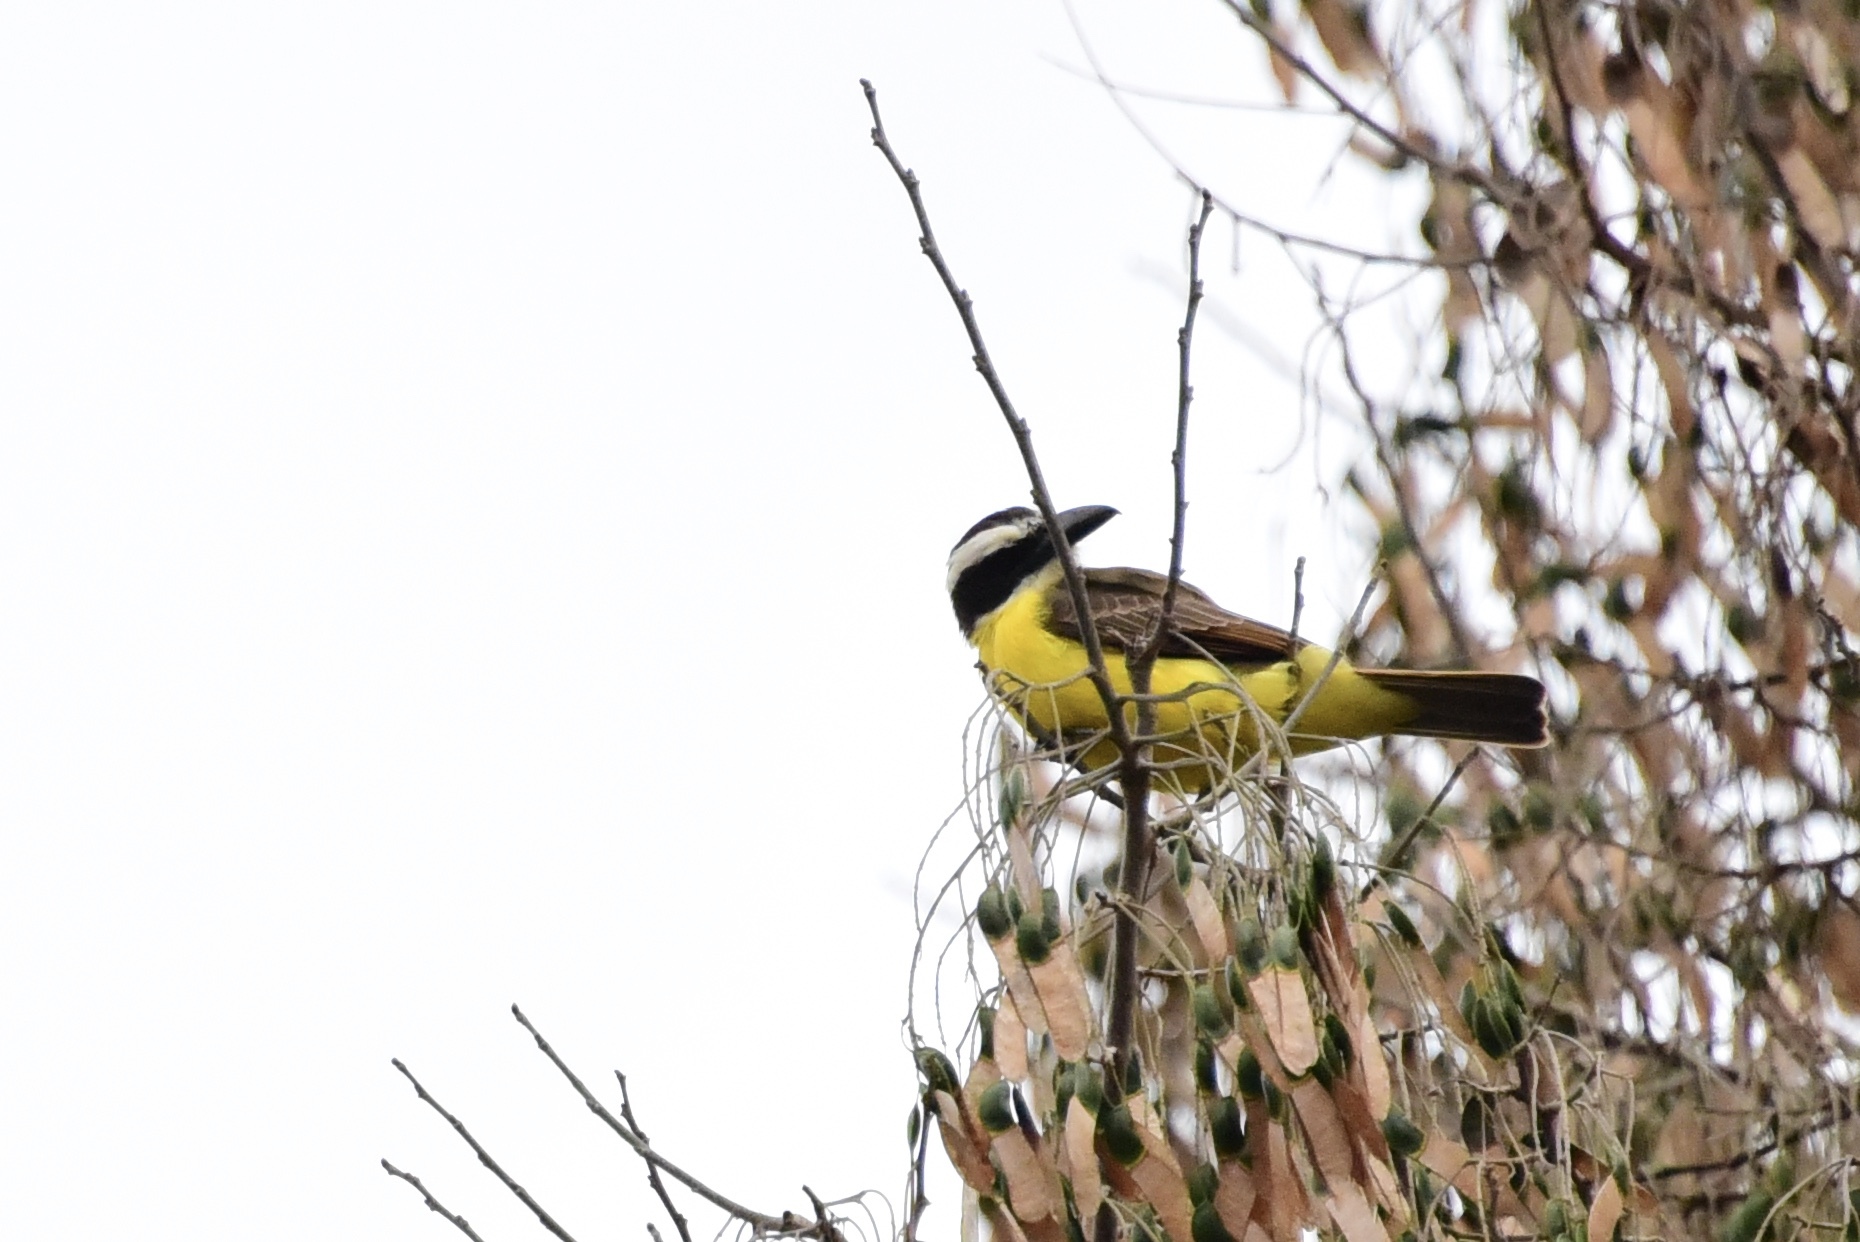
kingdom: Animalia
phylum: Chordata
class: Aves
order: Passeriformes
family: Tyrannidae
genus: Megarynchus
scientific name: Megarynchus pitangua
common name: Boat-billed flycatcher
